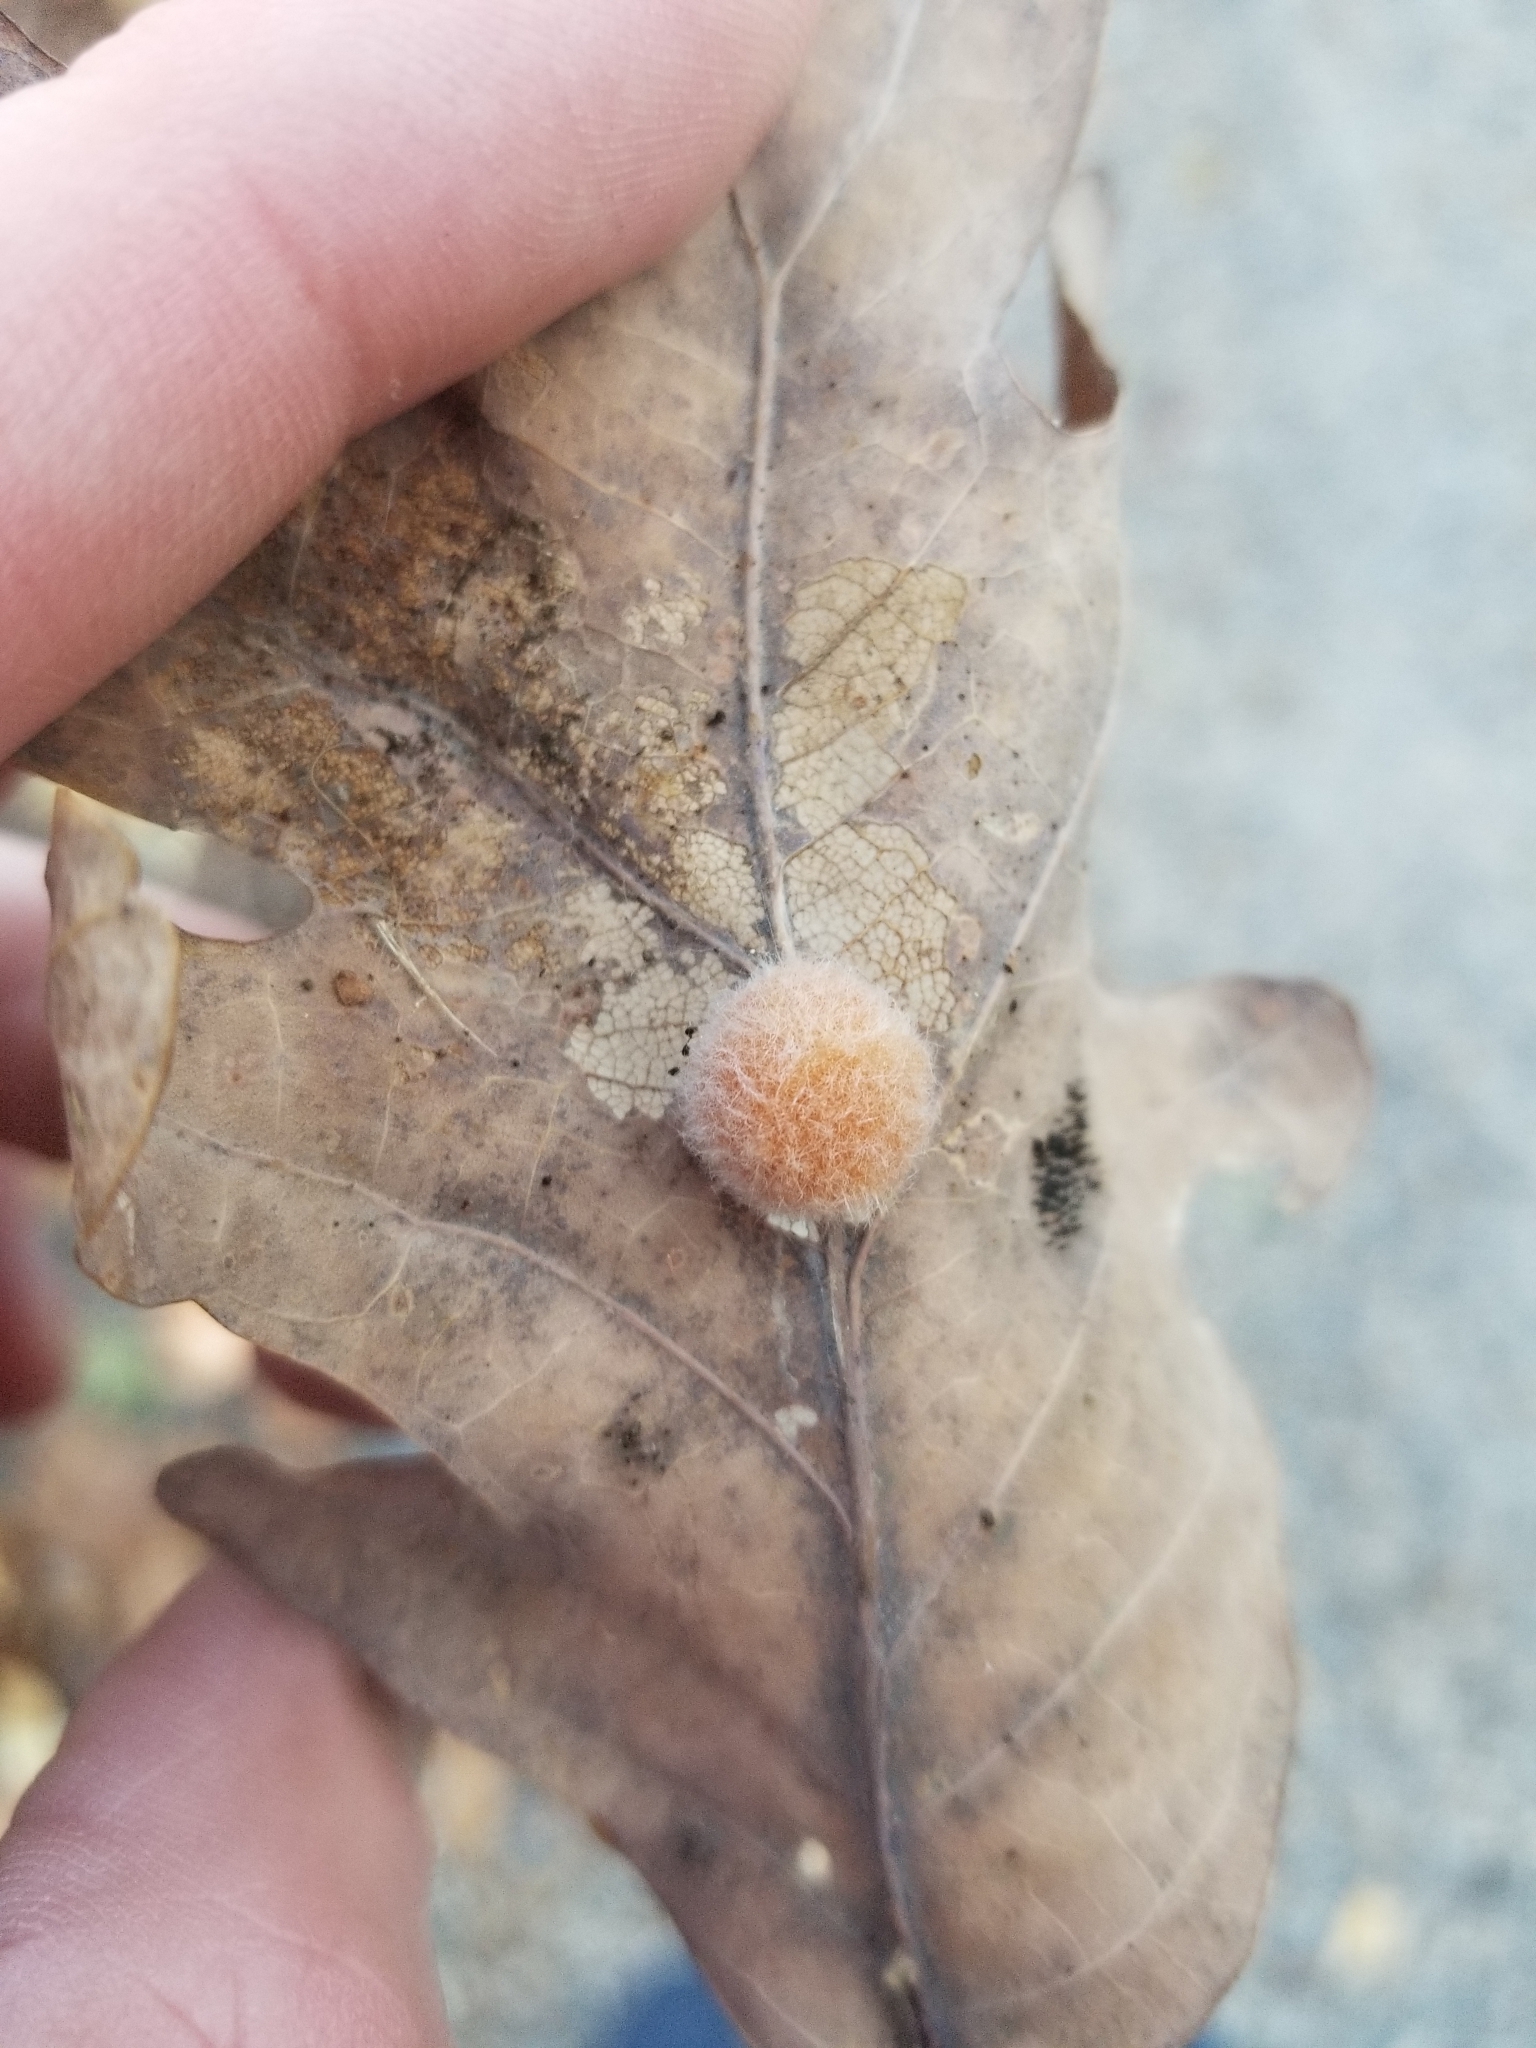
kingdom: Animalia
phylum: Arthropoda
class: Insecta
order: Hymenoptera
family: Cynipidae
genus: Andricus
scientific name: Andricus quercusflocci
